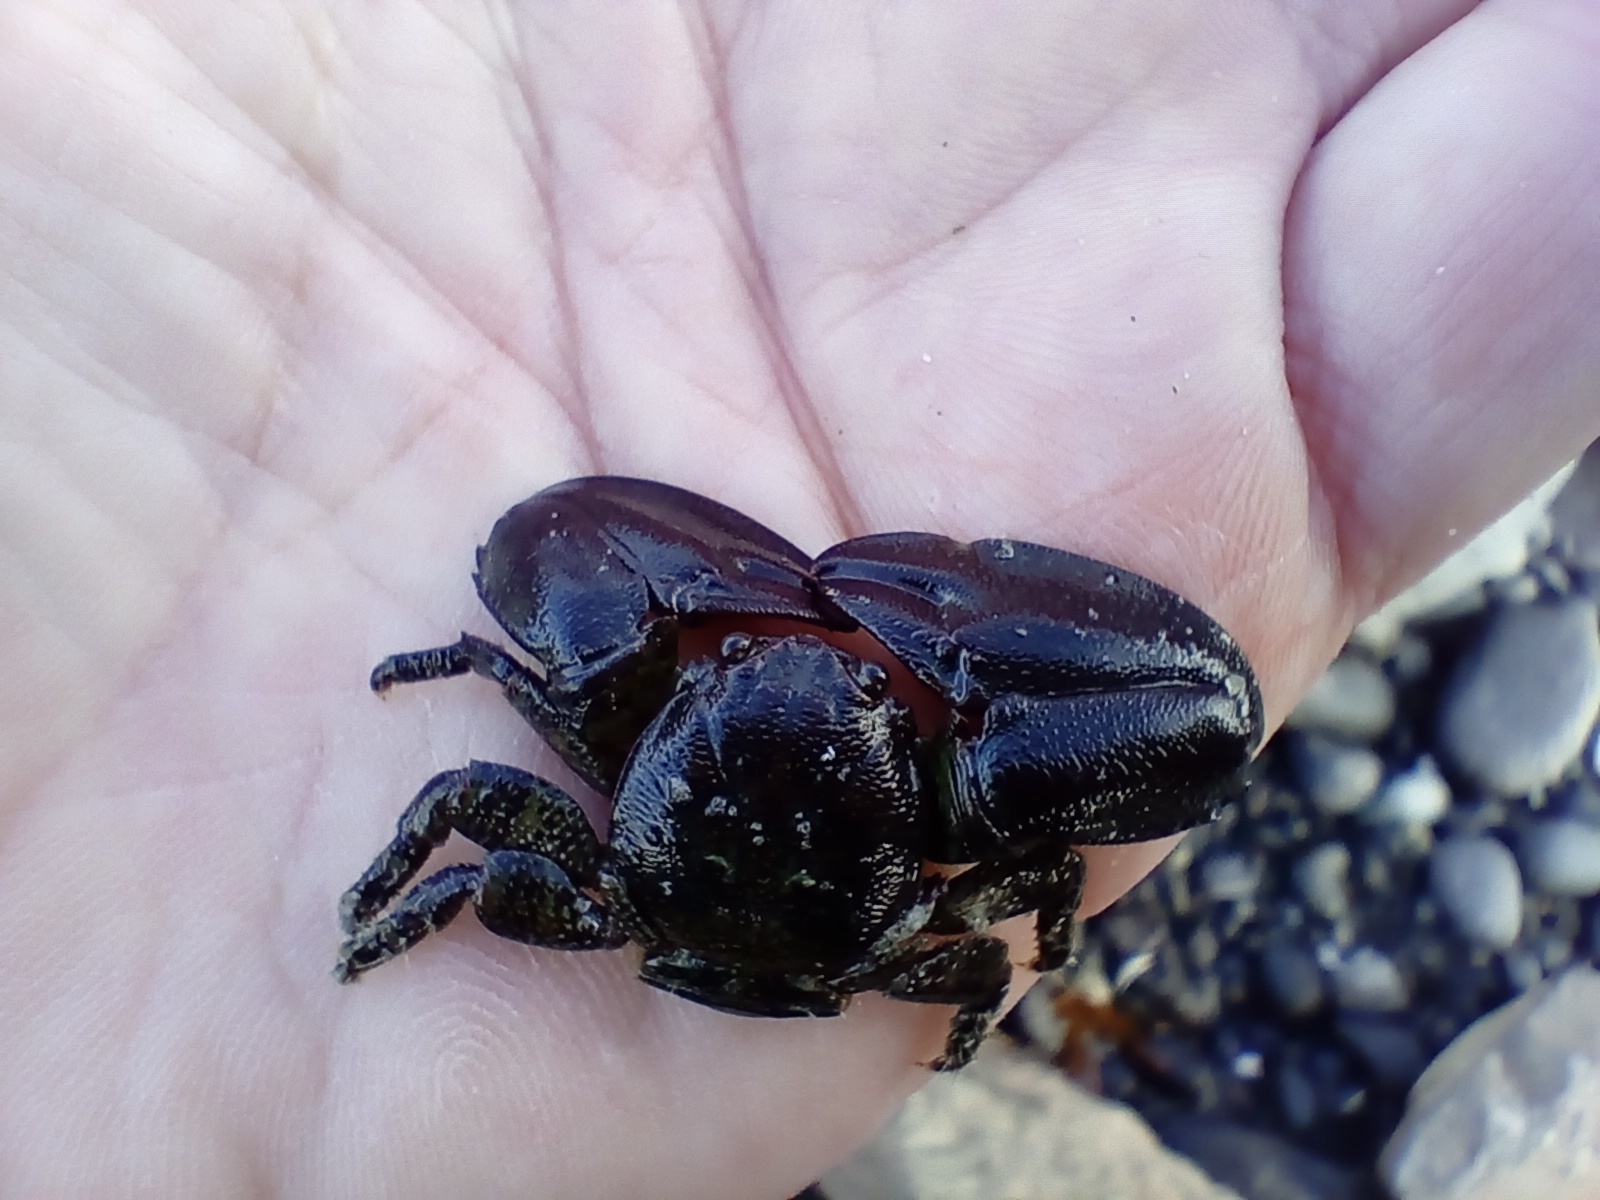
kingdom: Animalia
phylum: Arthropoda
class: Malacostraca
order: Decapoda
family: Porcellanidae
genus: Petrolisthes
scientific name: Petrolisthes elongatus
